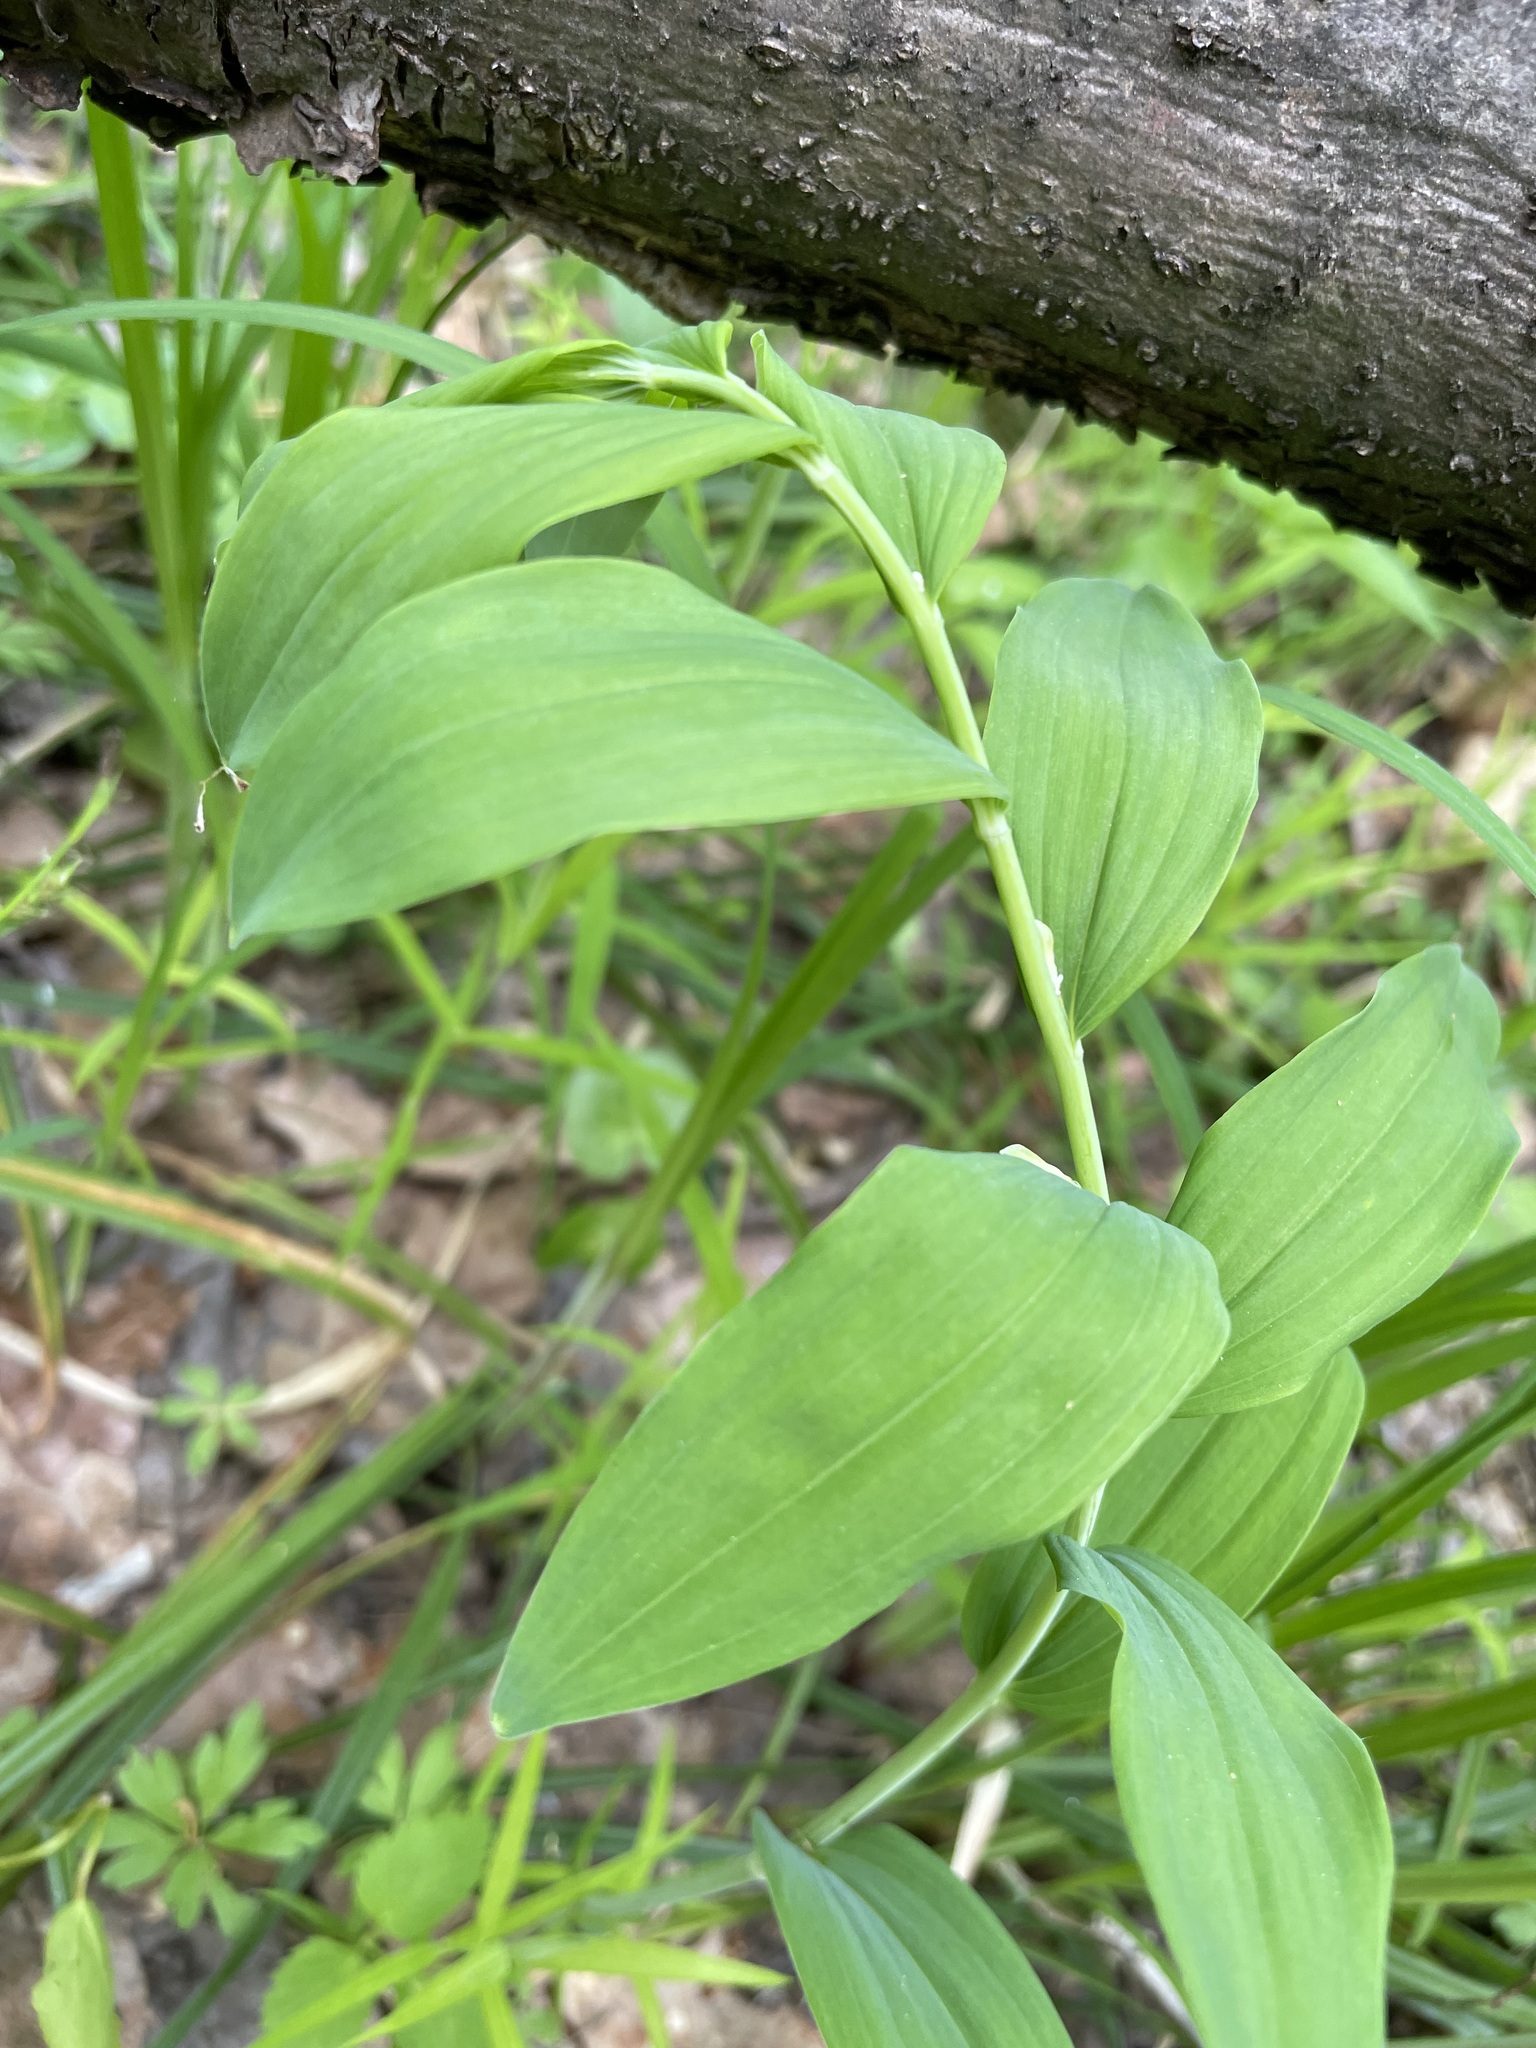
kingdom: Plantae
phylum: Tracheophyta
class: Liliopsida
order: Asparagales
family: Asparagaceae
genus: Polygonatum
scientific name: Polygonatum odoratum
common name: Angular solomon's-seal
